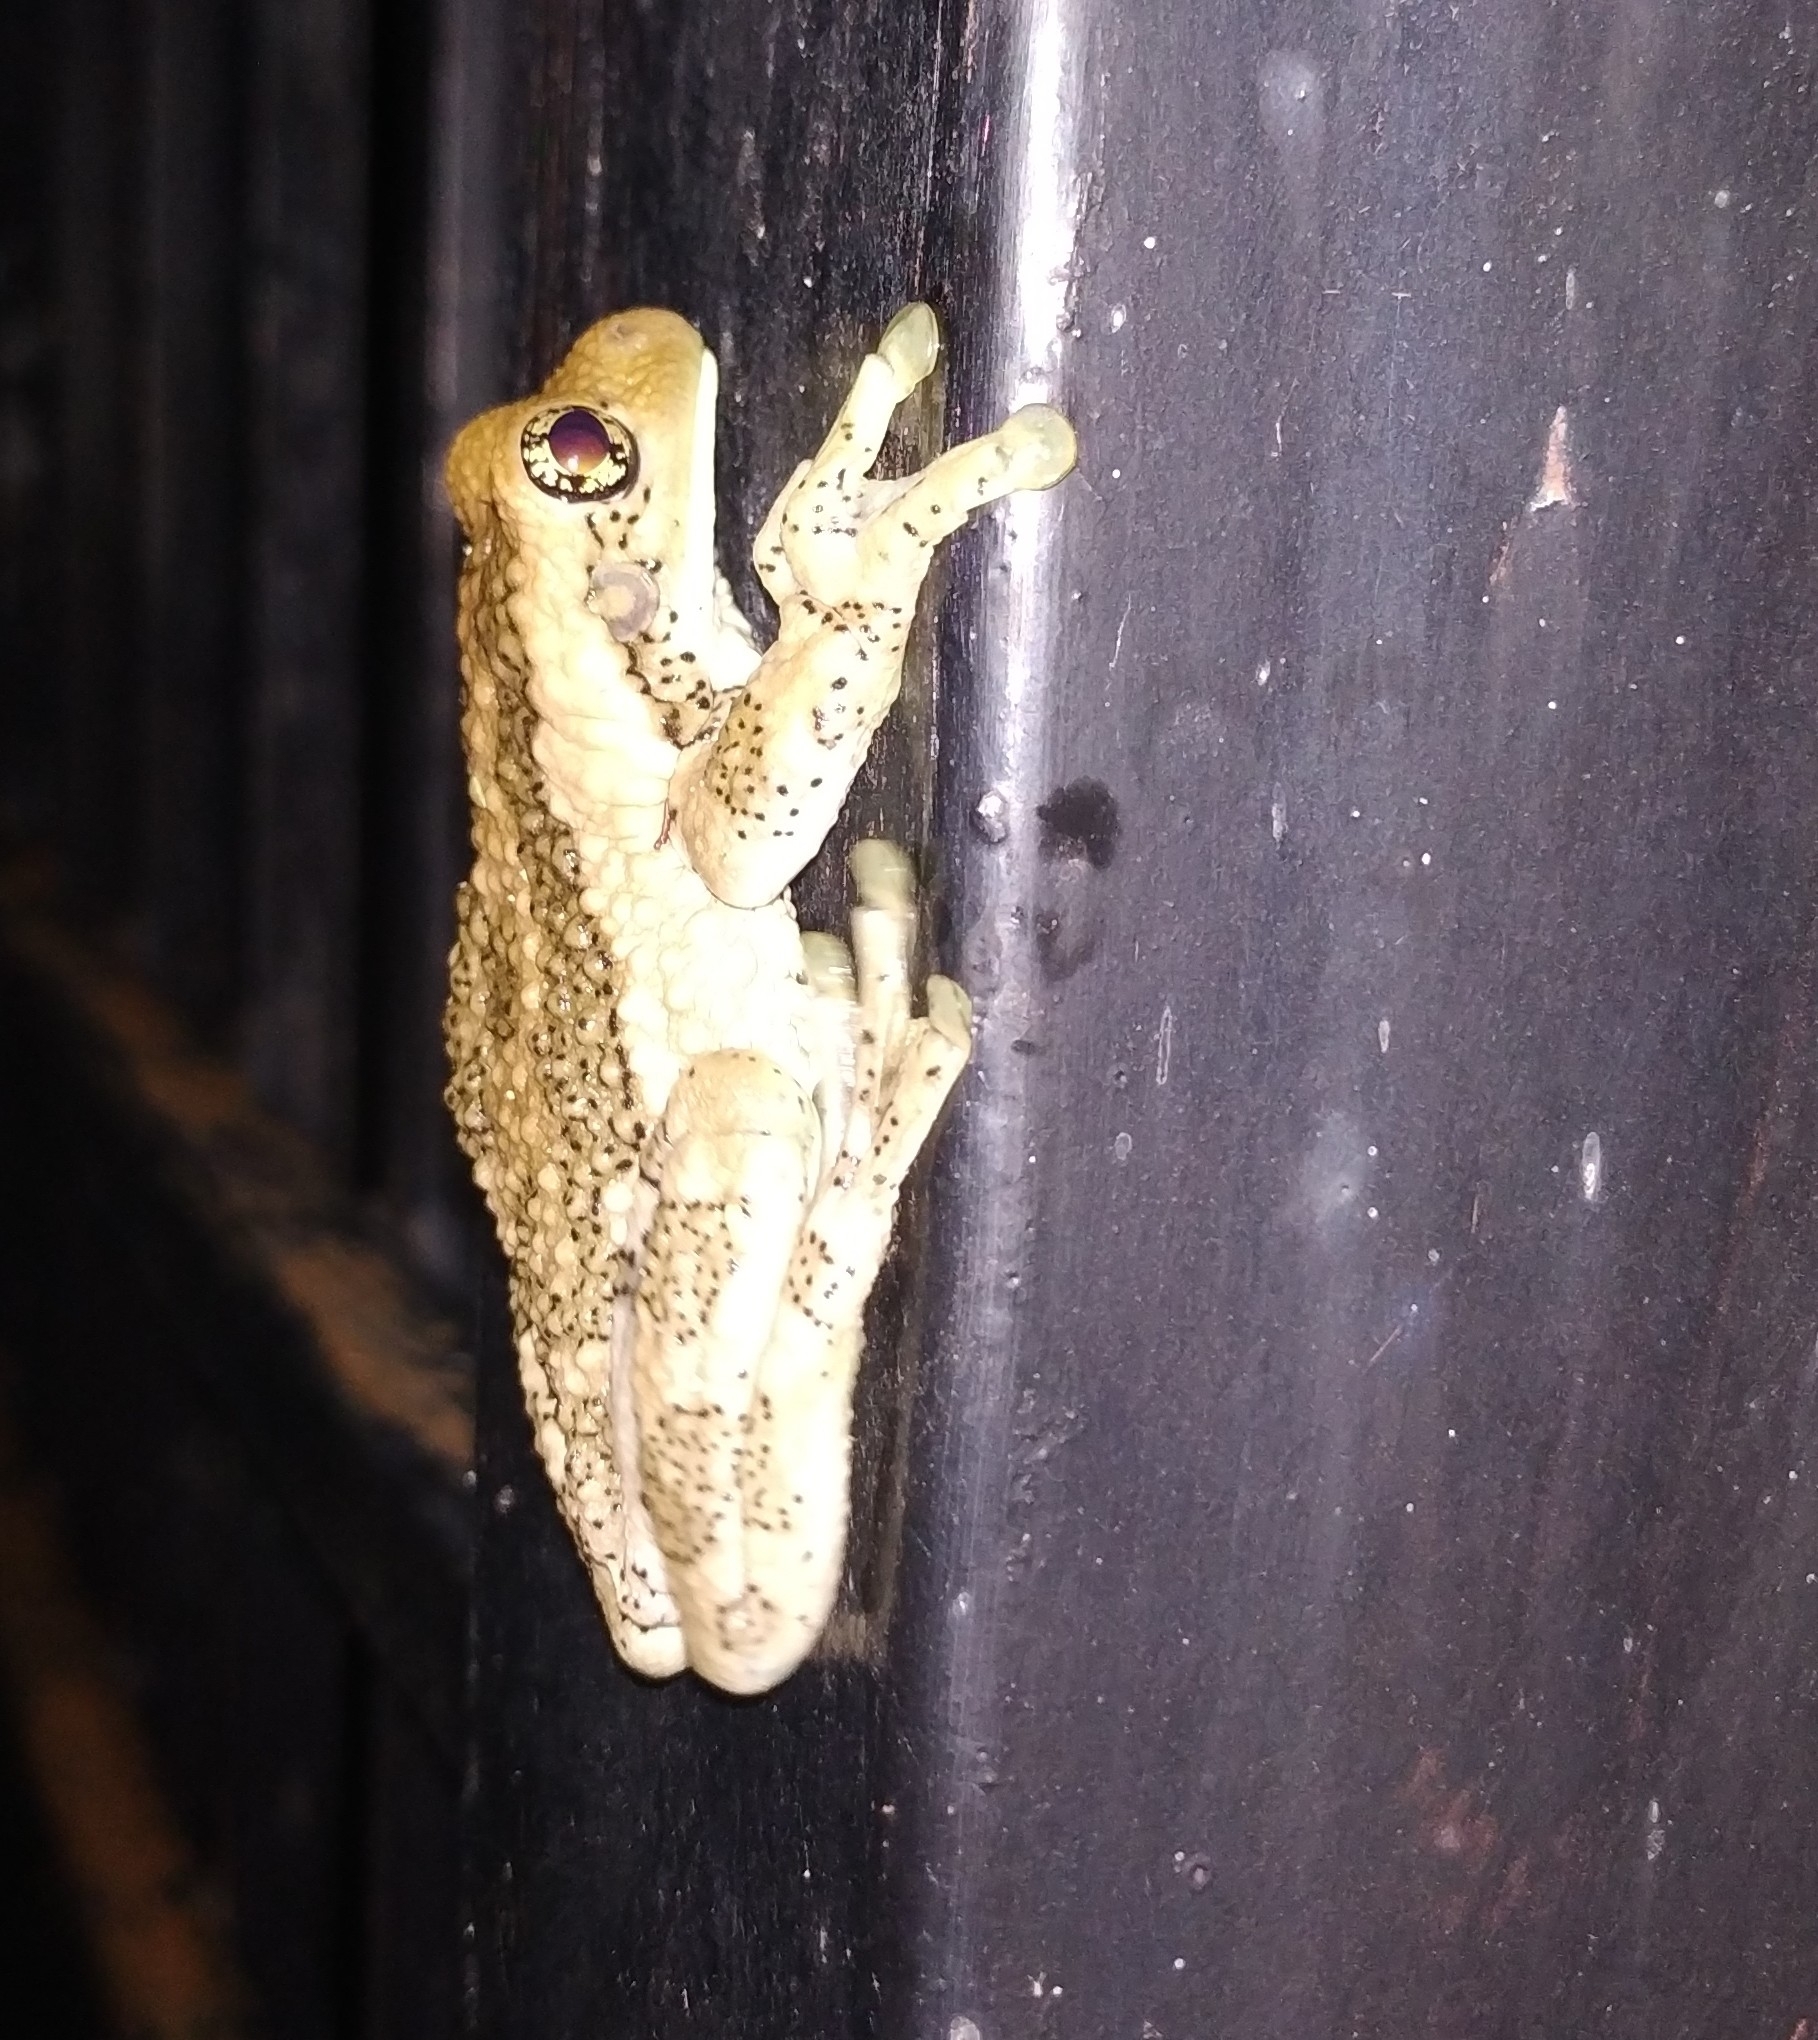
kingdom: Animalia
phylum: Chordata
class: Amphibia
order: Anura
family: Hylidae
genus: Trachycephalus
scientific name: Trachycephalus vermiculatus
